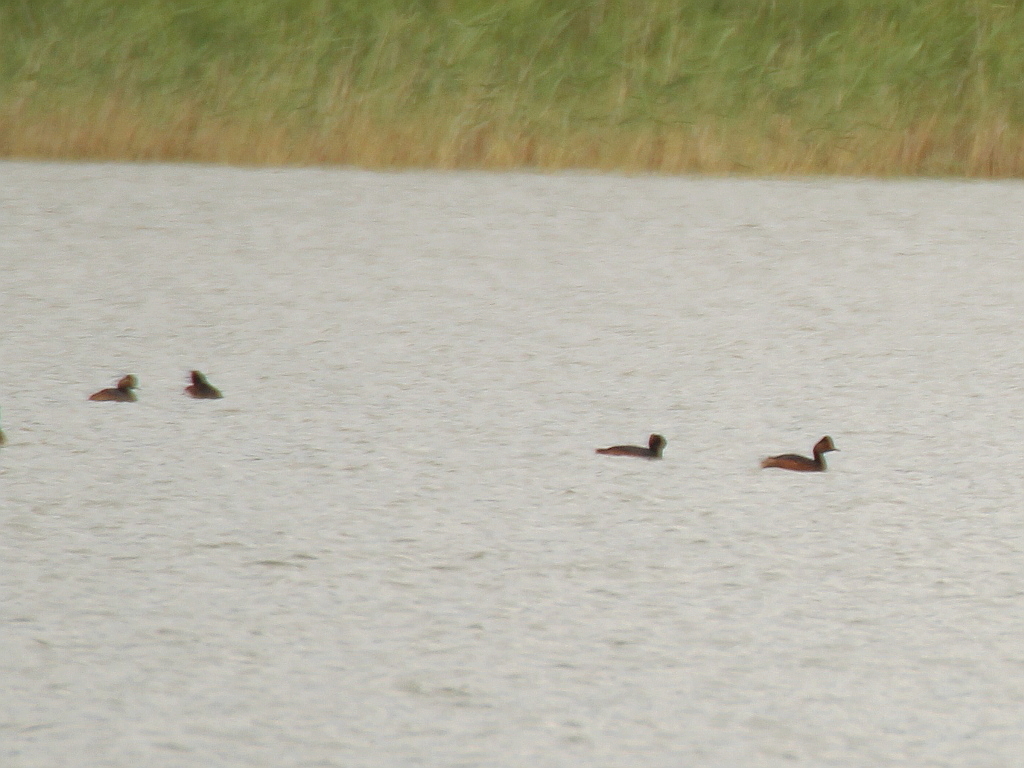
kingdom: Animalia
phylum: Chordata
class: Aves
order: Podicipediformes
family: Podicipedidae
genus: Podiceps
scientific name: Podiceps nigricollis
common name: Black-necked grebe
